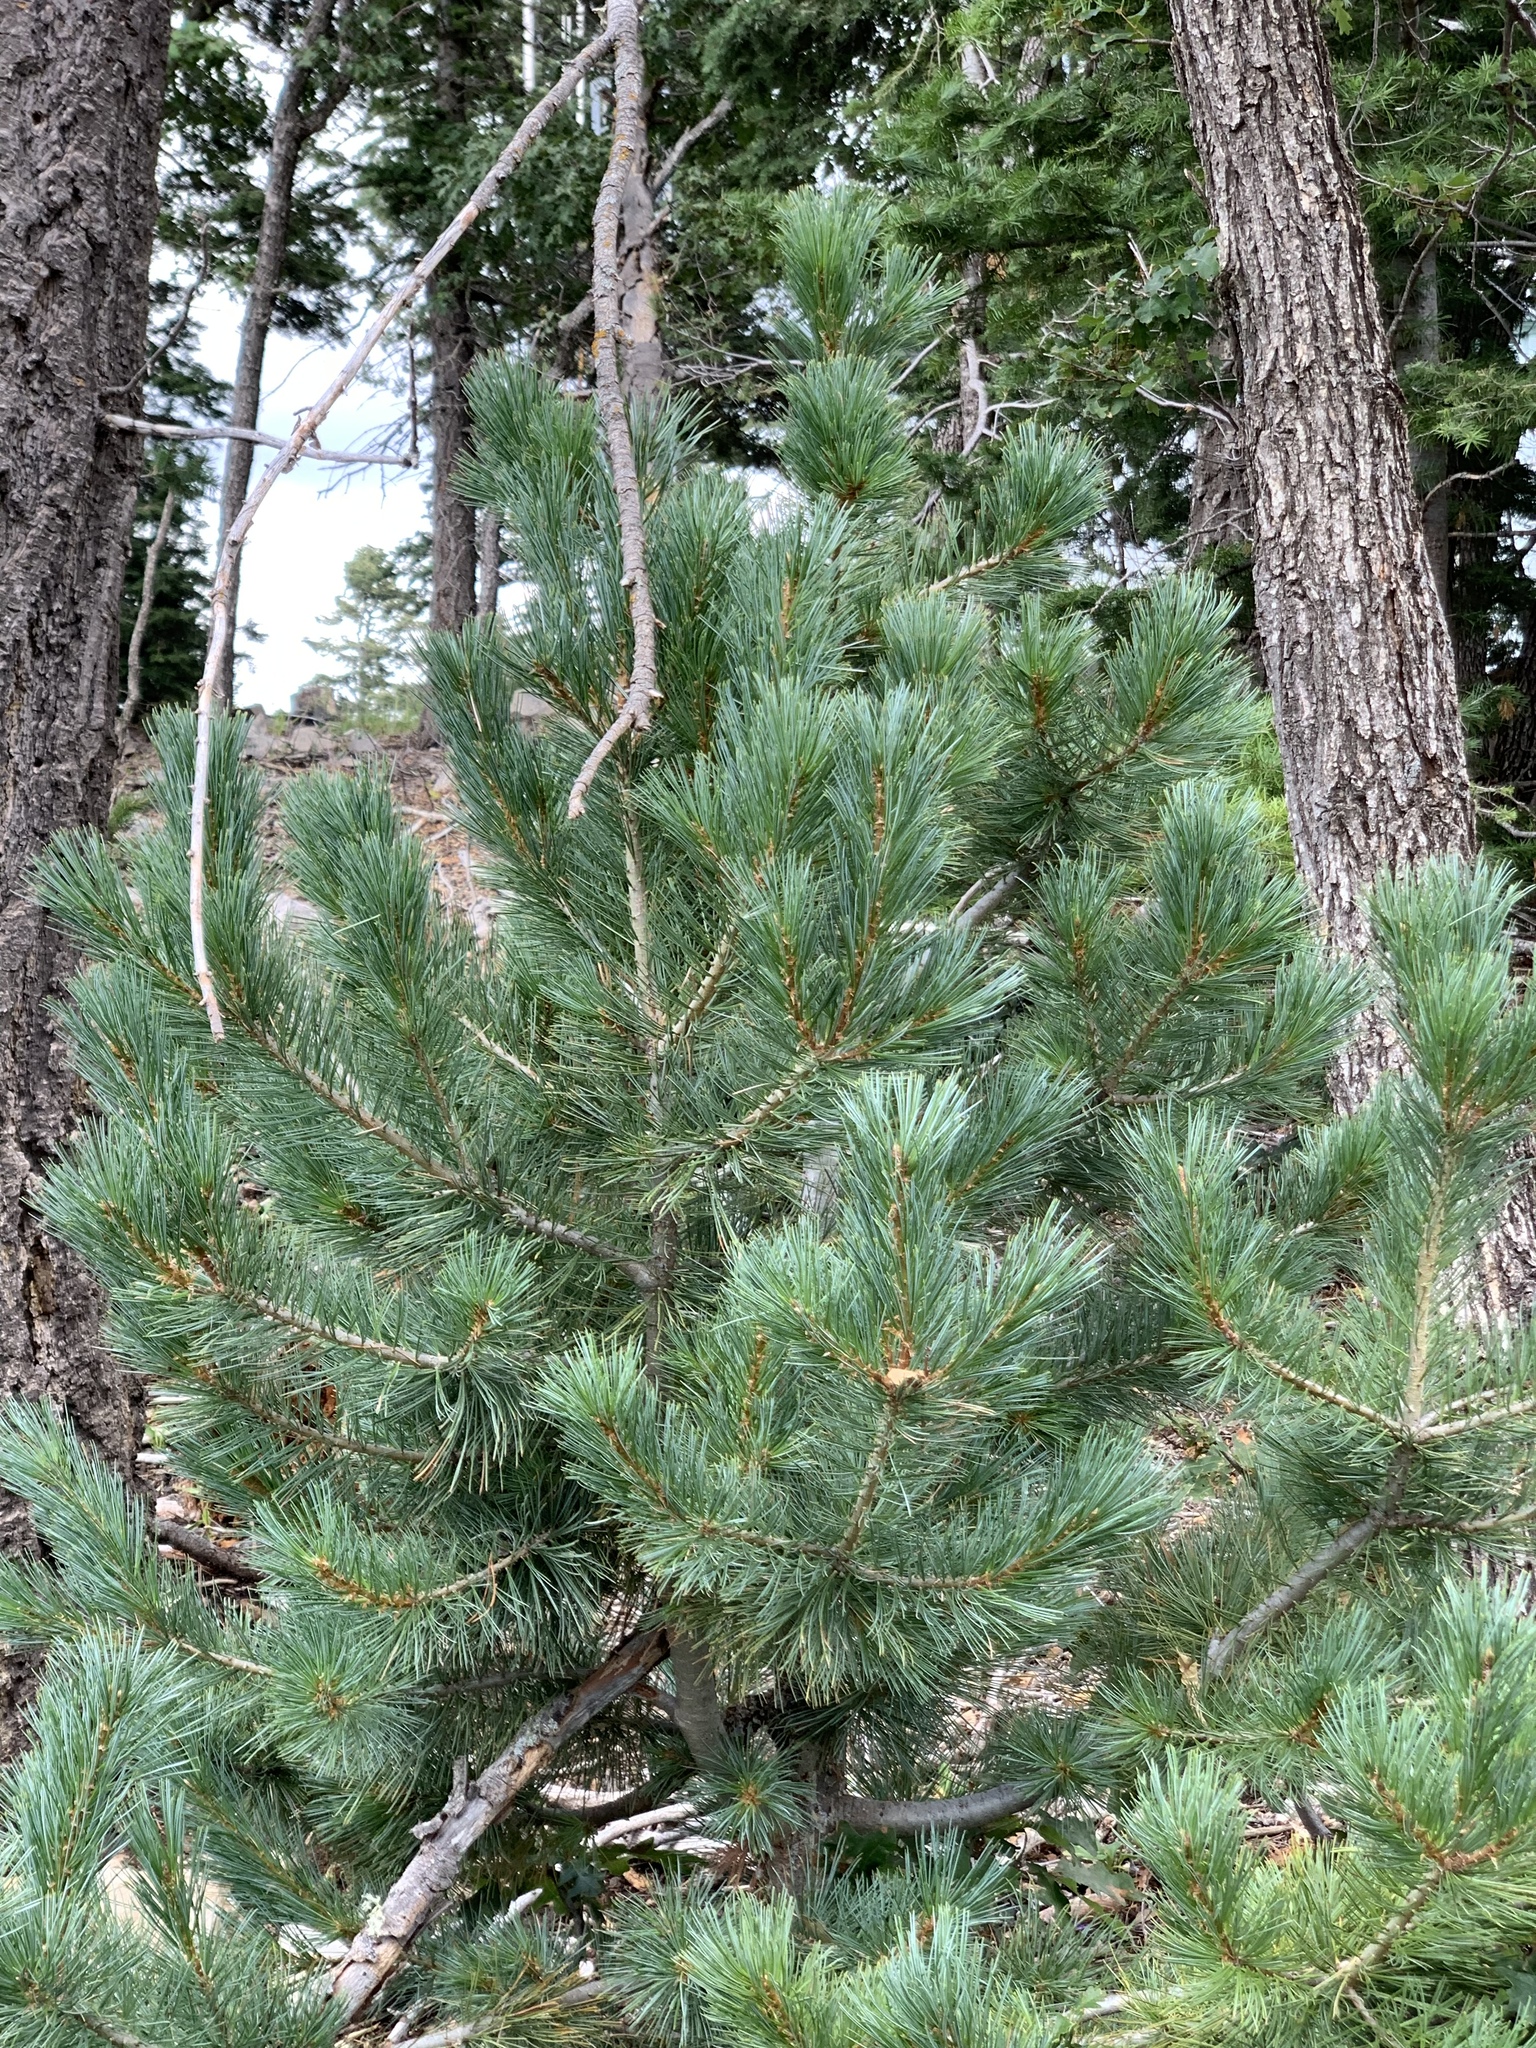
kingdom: Plantae
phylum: Tracheophyta
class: Pinopsida
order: Pinales
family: Pinaceae
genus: Pinus
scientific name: Pinus strobiformis
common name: Southwestern white pine
